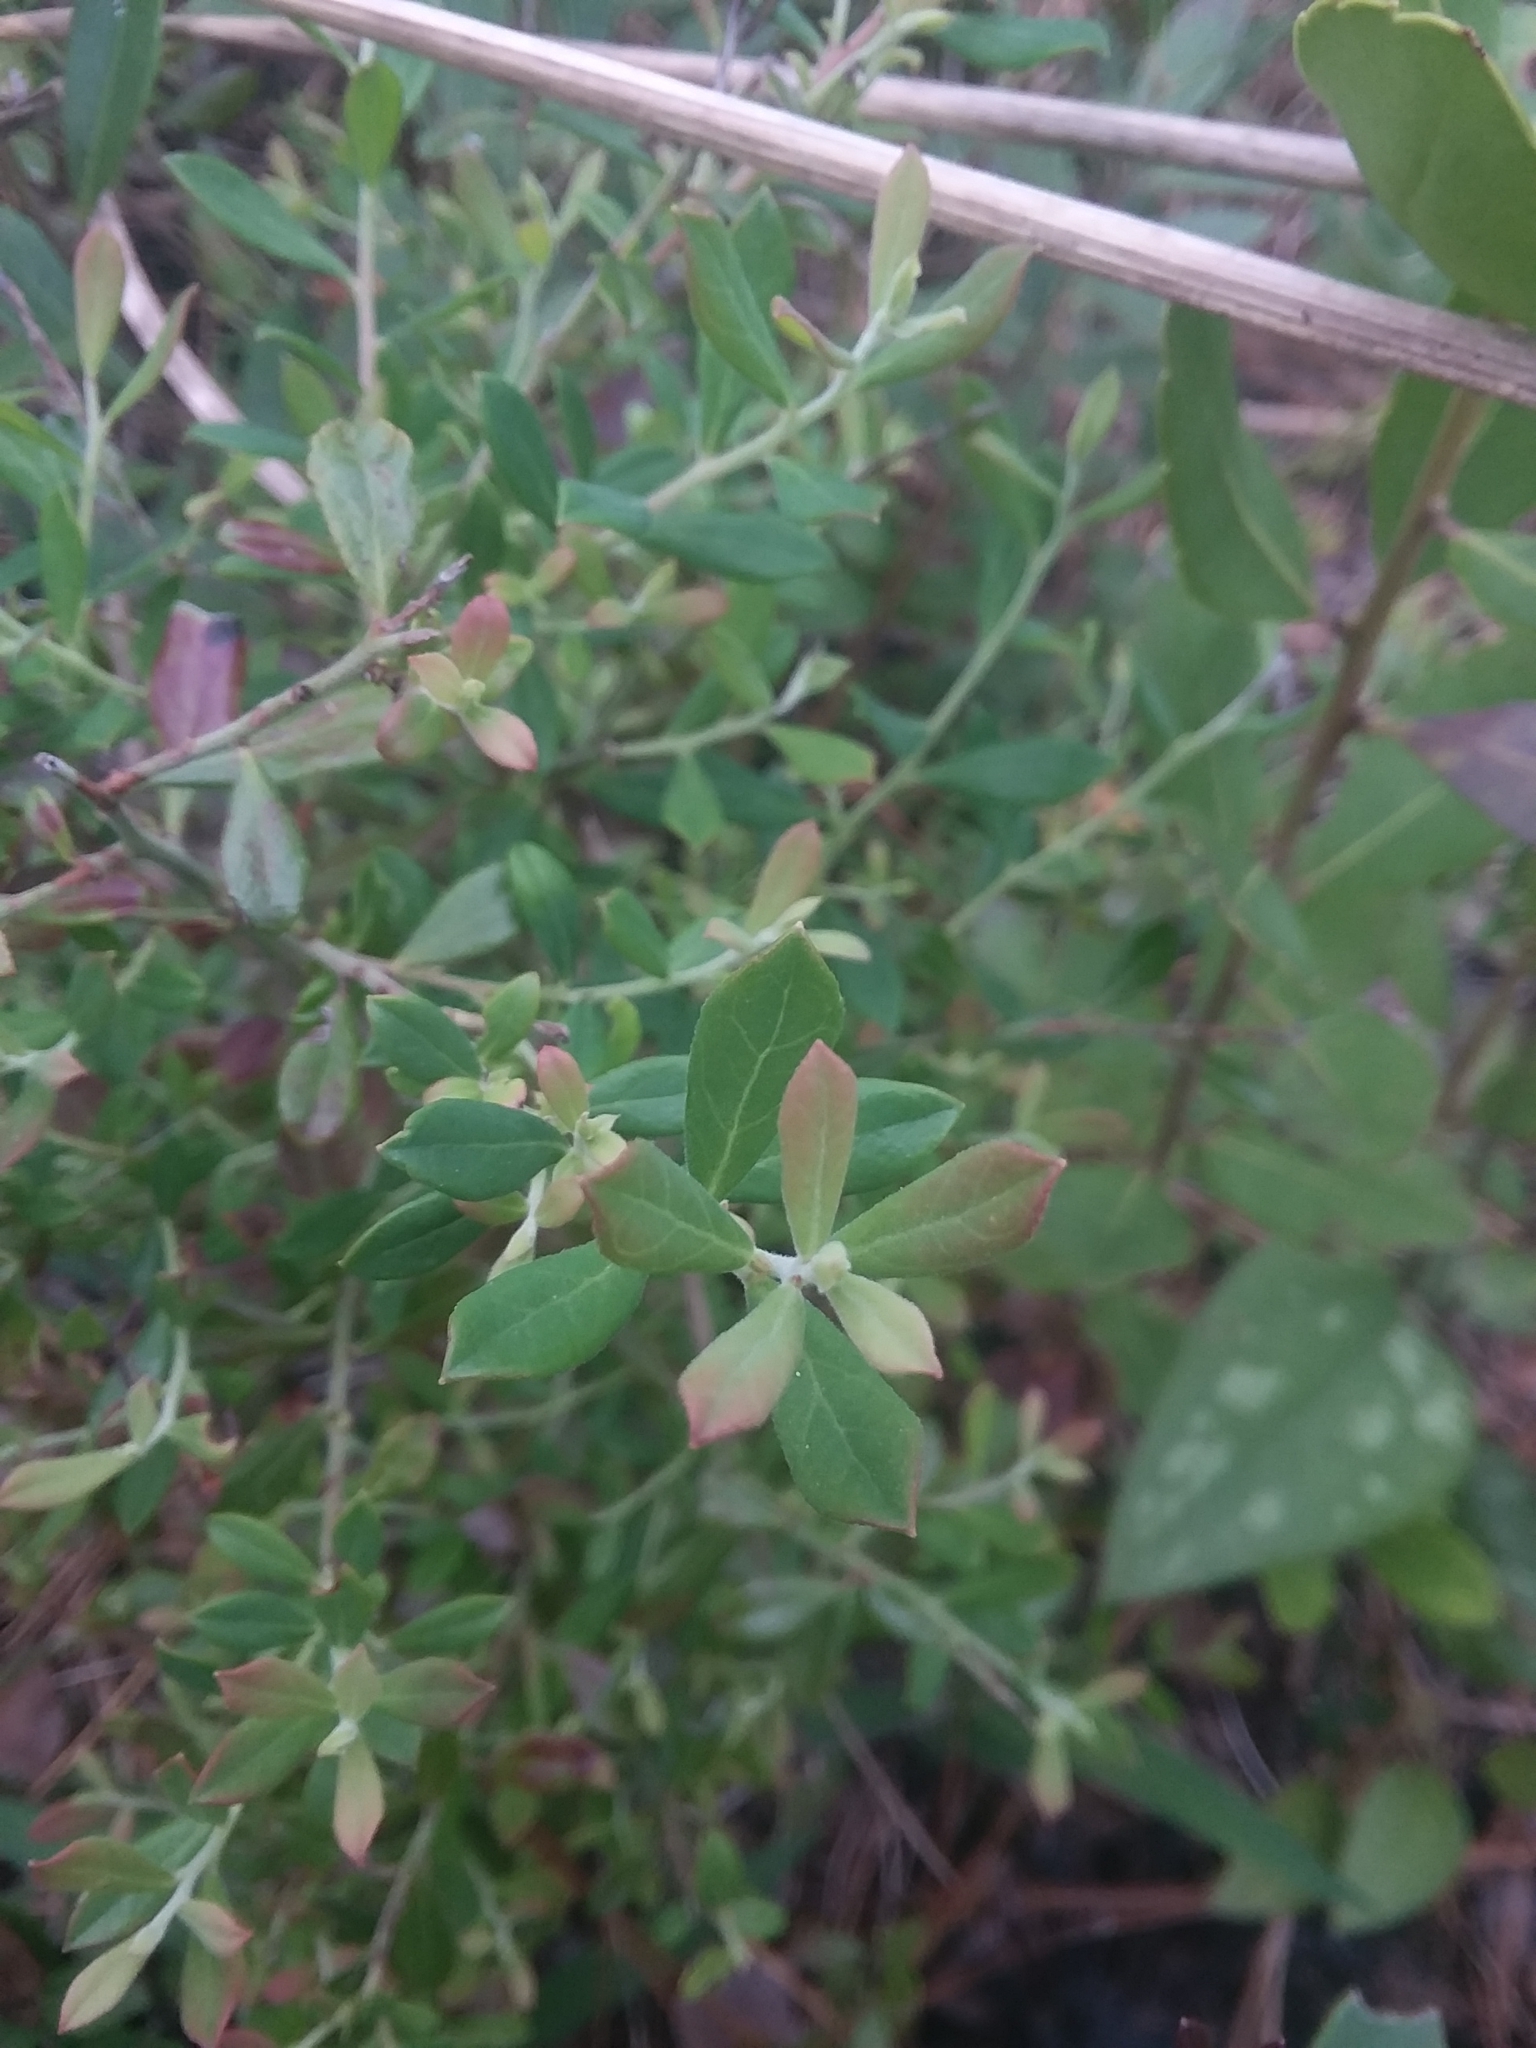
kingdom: Plantae
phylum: Tracheophyta
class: Magnoliopsida
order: Ericales
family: Ericaceae
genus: Vaccinium
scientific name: Vaccinium darrowii
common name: Darrow's blueberry
